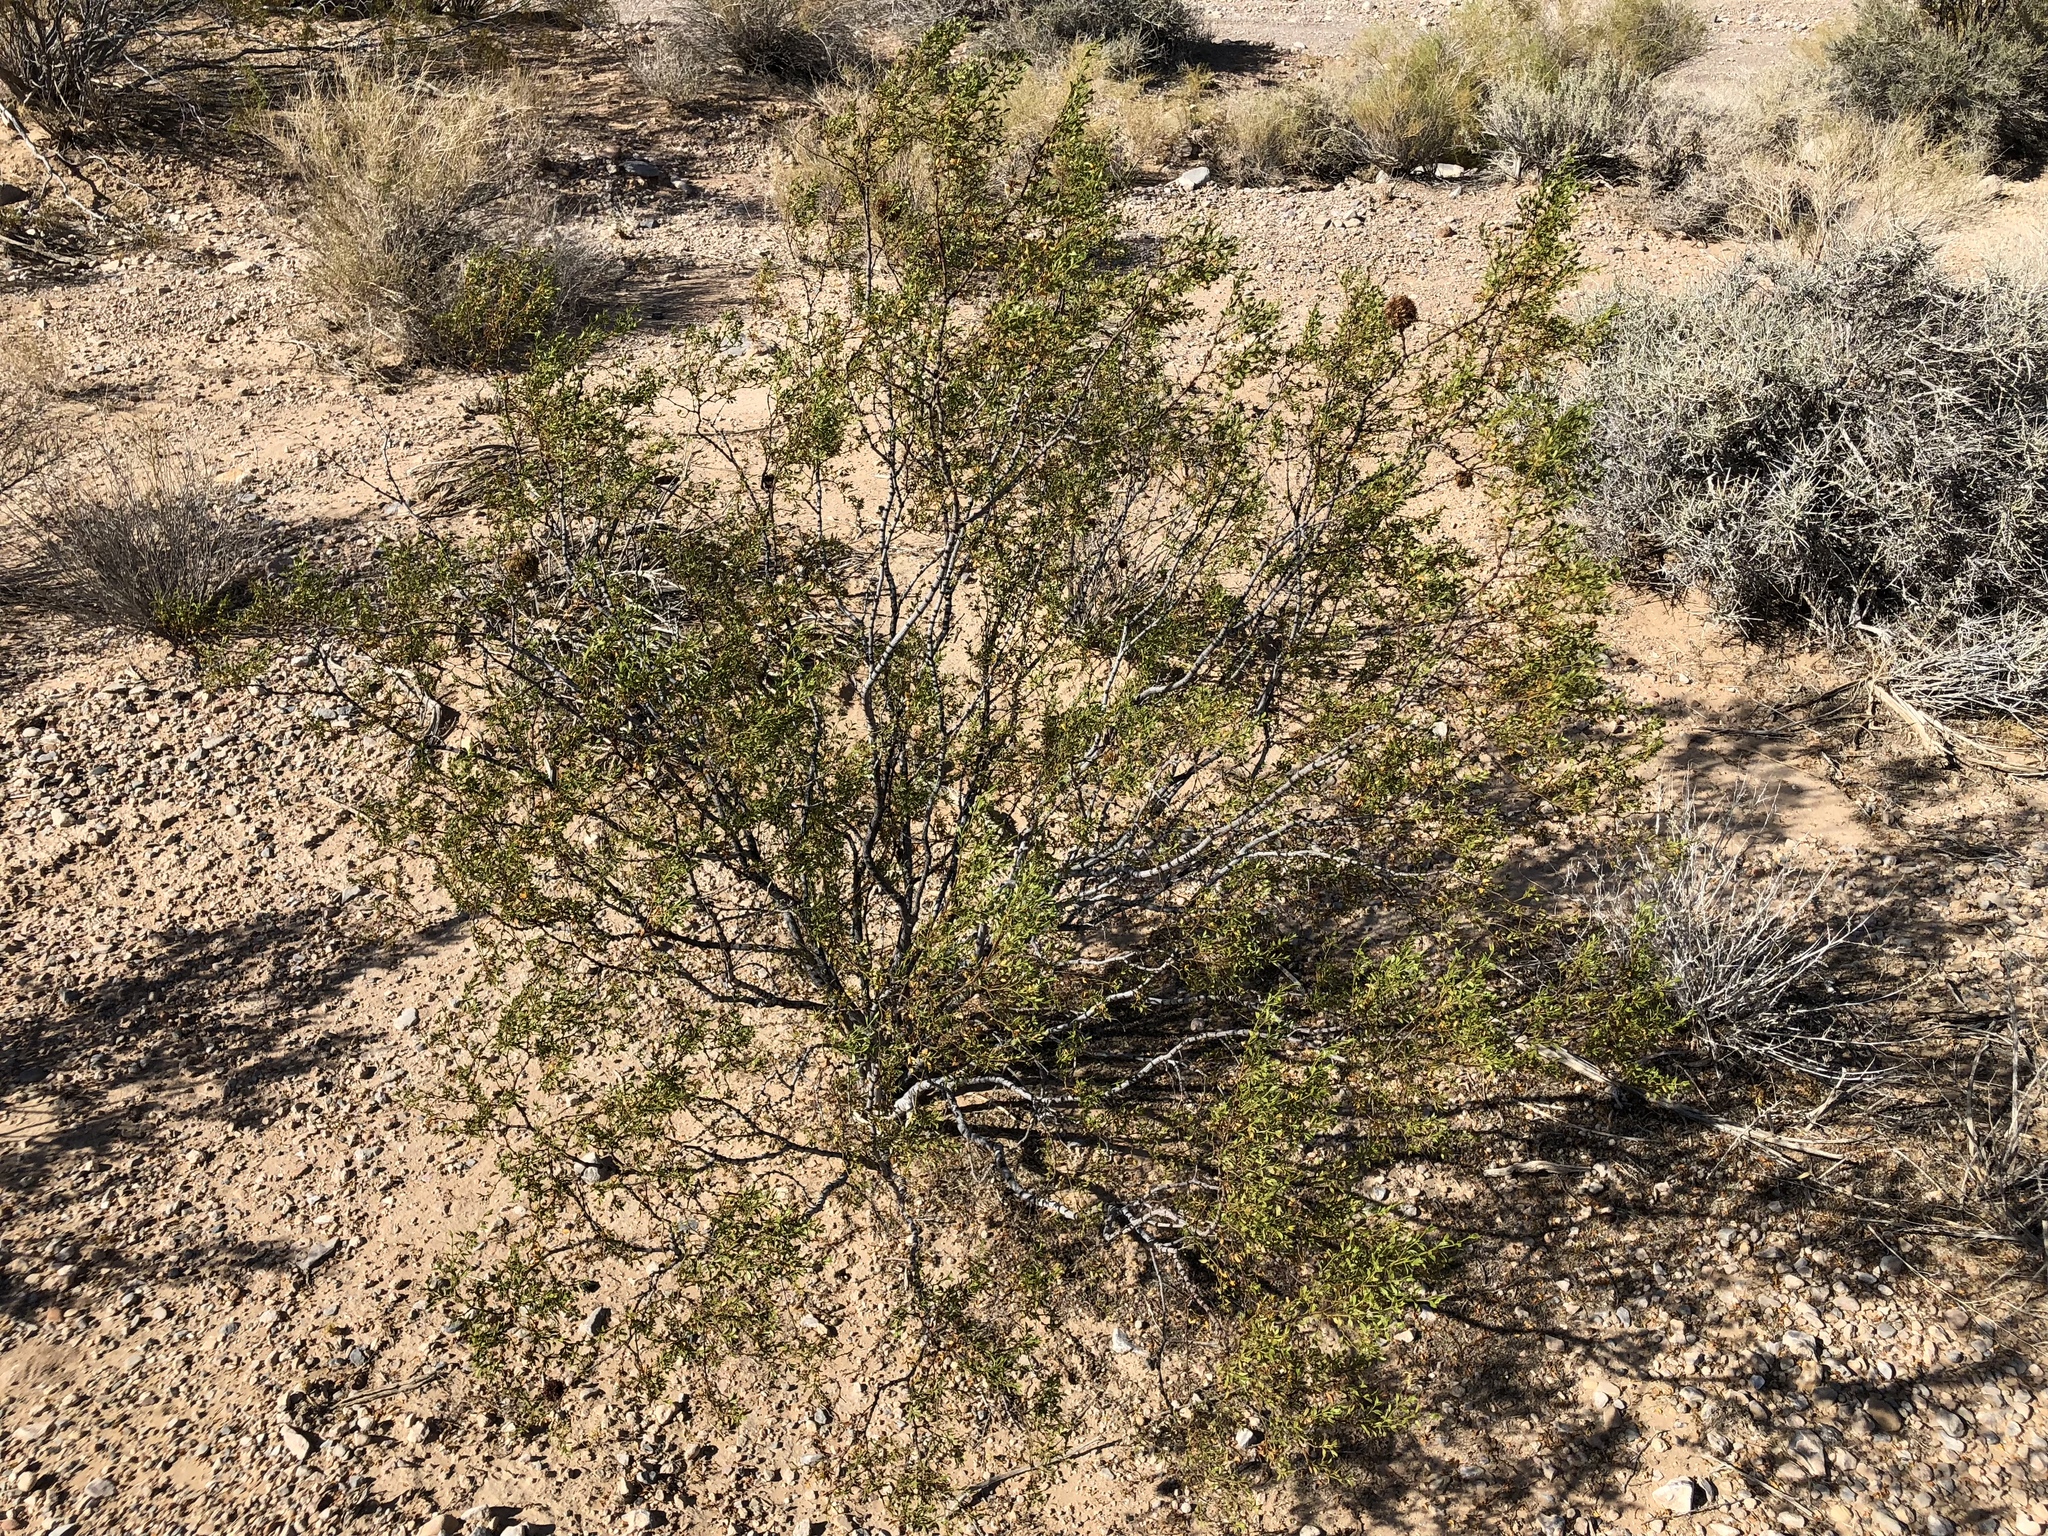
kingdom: Plantae
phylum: Tracheophyta
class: Magnoliopsida
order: Zygophyllales
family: Zygophyllaceae
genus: Larrea
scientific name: Larrea tridentata
